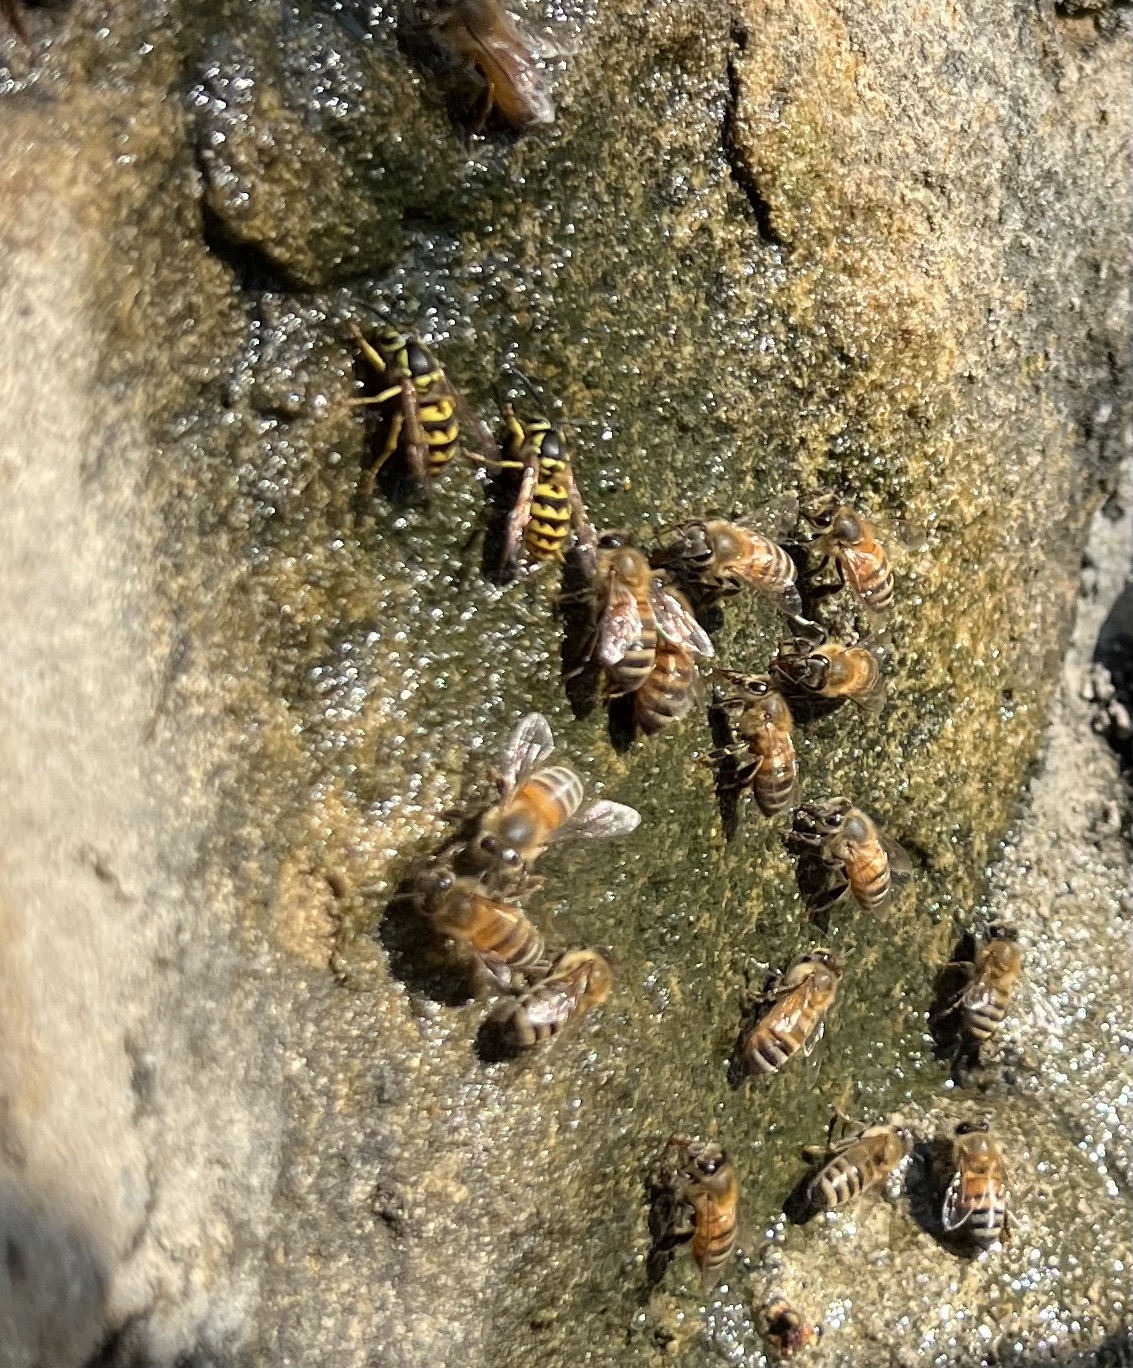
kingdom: Animalia
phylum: Arthropoda
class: Insecta
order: Hymenoptera
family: Apidae
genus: Apis
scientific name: Apis mellifera
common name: Honey bee
